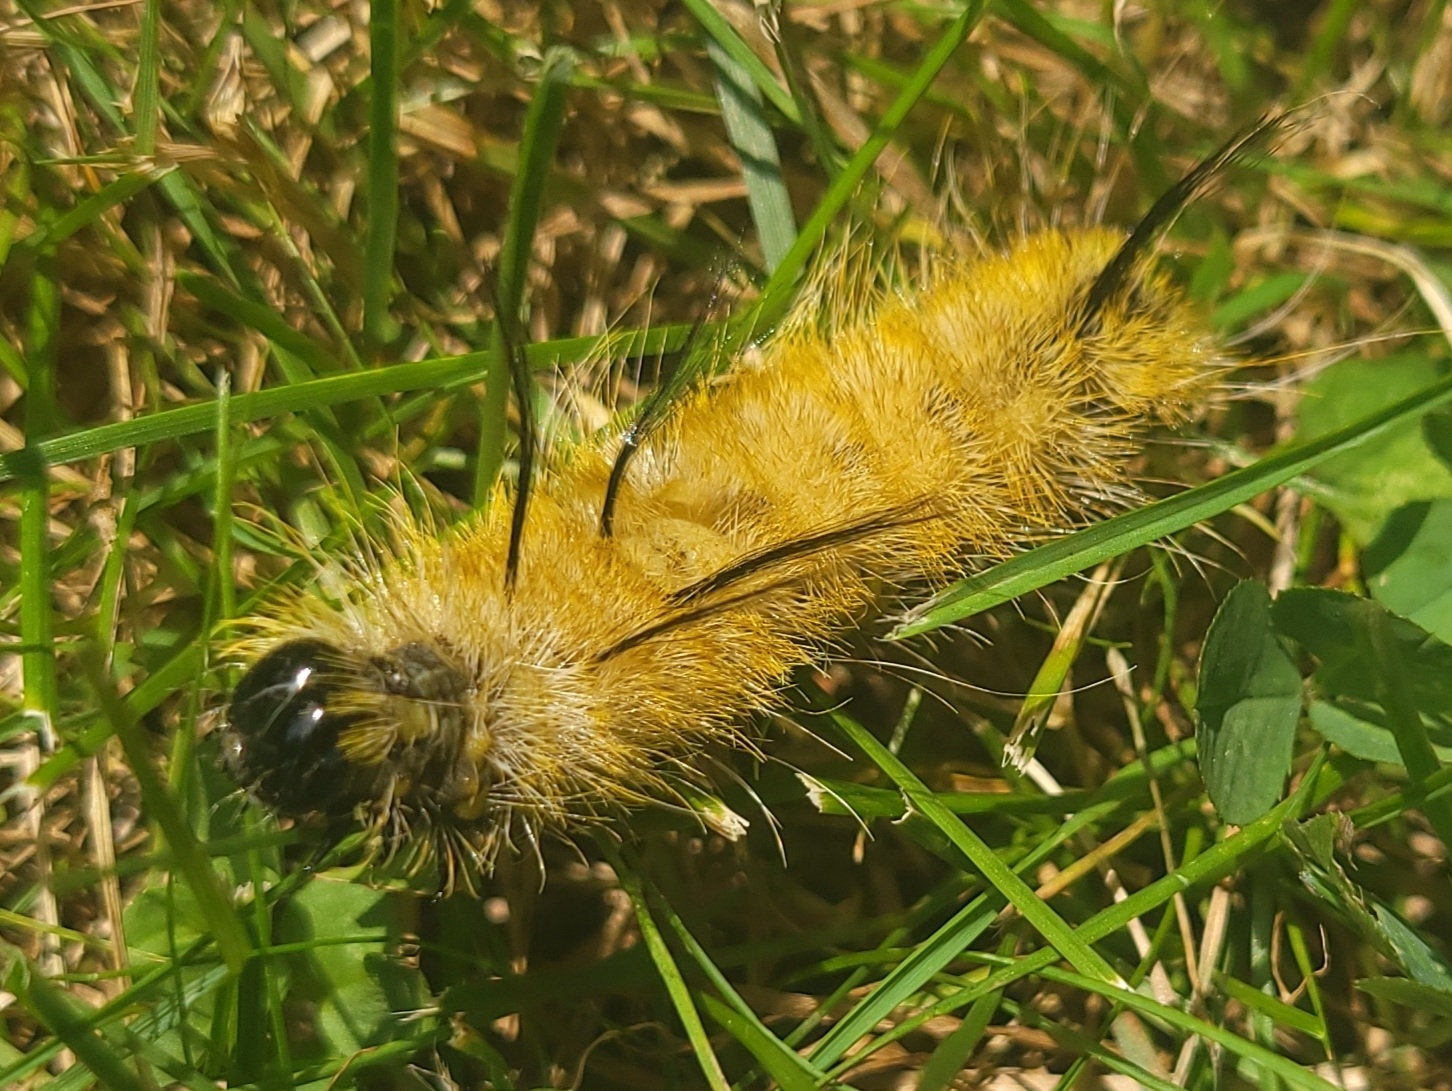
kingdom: Animalia
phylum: Arthropoda
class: Insecta
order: Lepidoptera
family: Noctuidae
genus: Acronicta
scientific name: Acronicta americana
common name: American dagger
